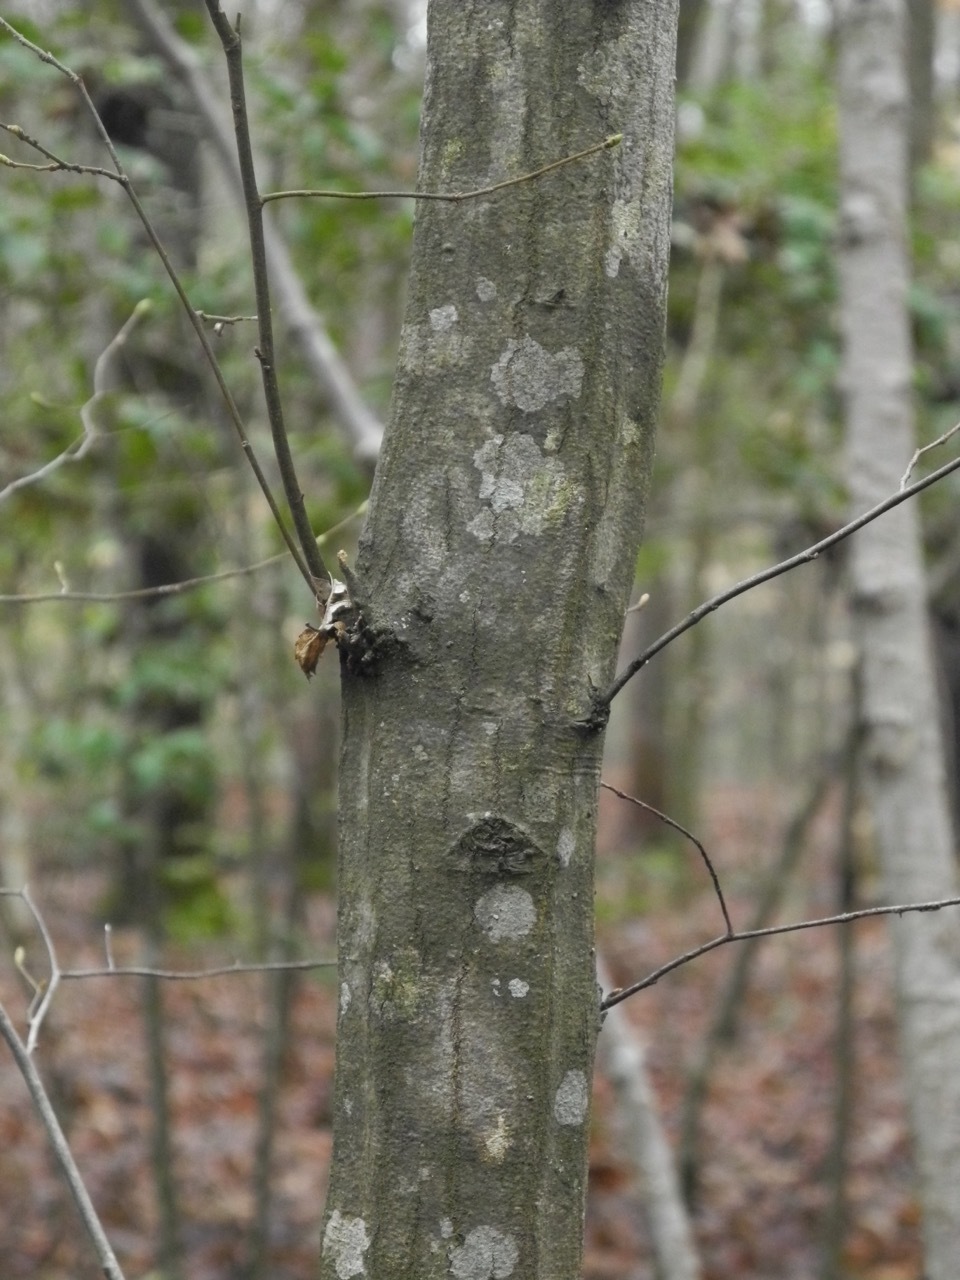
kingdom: Plantae
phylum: Tracheophyta
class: Magnoliopsida
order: Fagales
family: Betulaceae
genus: Carpinus
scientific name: Carpinus caroliniana
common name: American hornbeam
